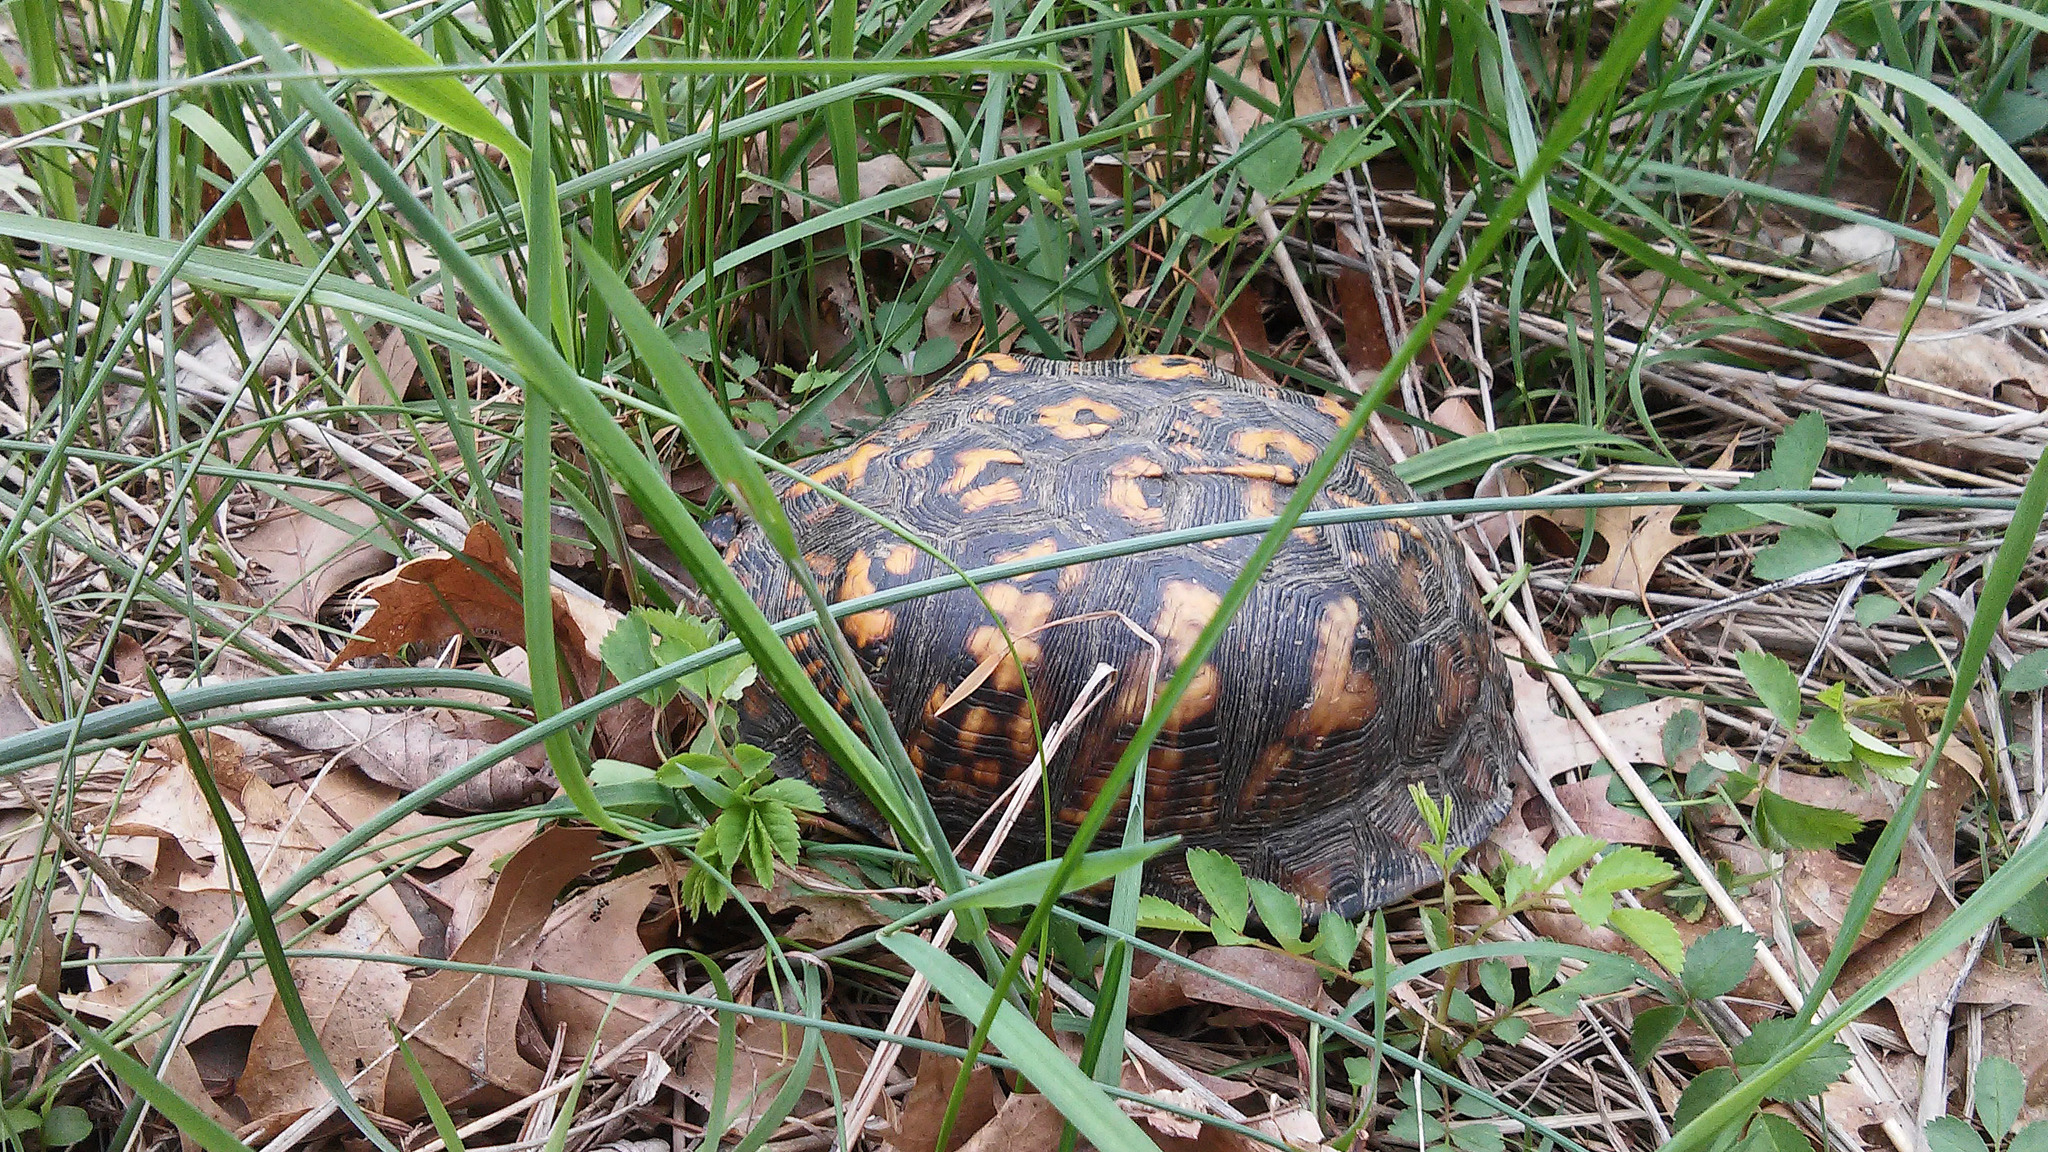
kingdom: Animalia
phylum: Chordata
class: Testudines
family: Emydidae
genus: Terrapene
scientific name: Terrapene carolina
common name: Common box turtle
